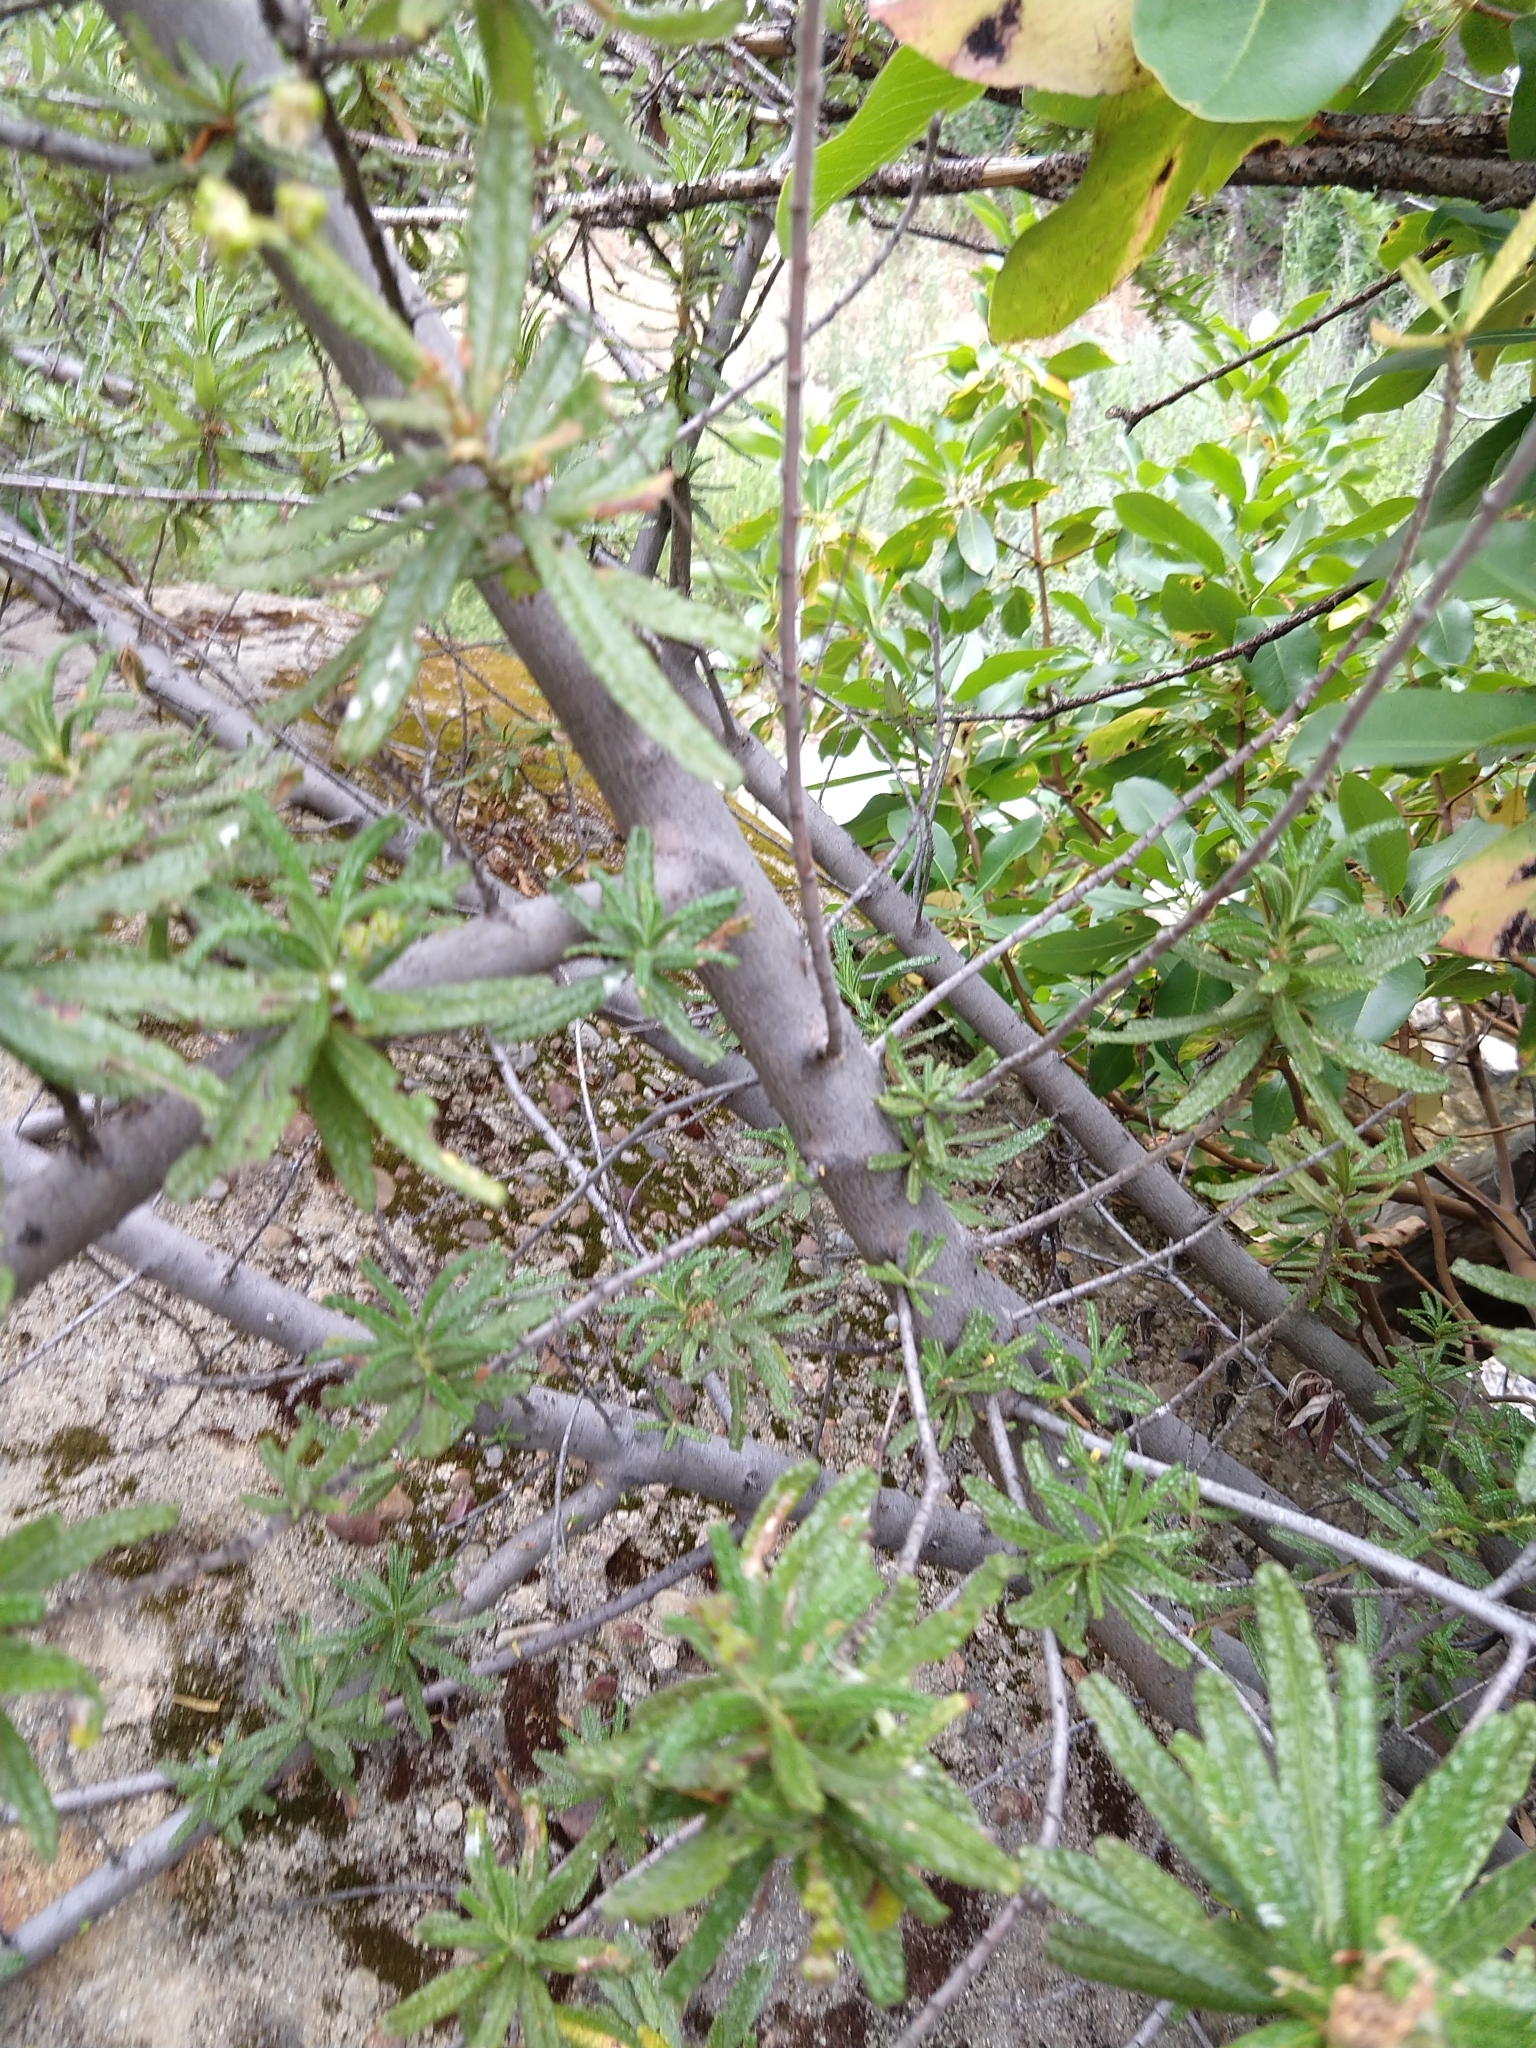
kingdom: Plantae
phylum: Tracheophyta
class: Magnoliopsida
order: Rosales
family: Rhamnaceae
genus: Ceanothus
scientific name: Ceanothus papillosus
